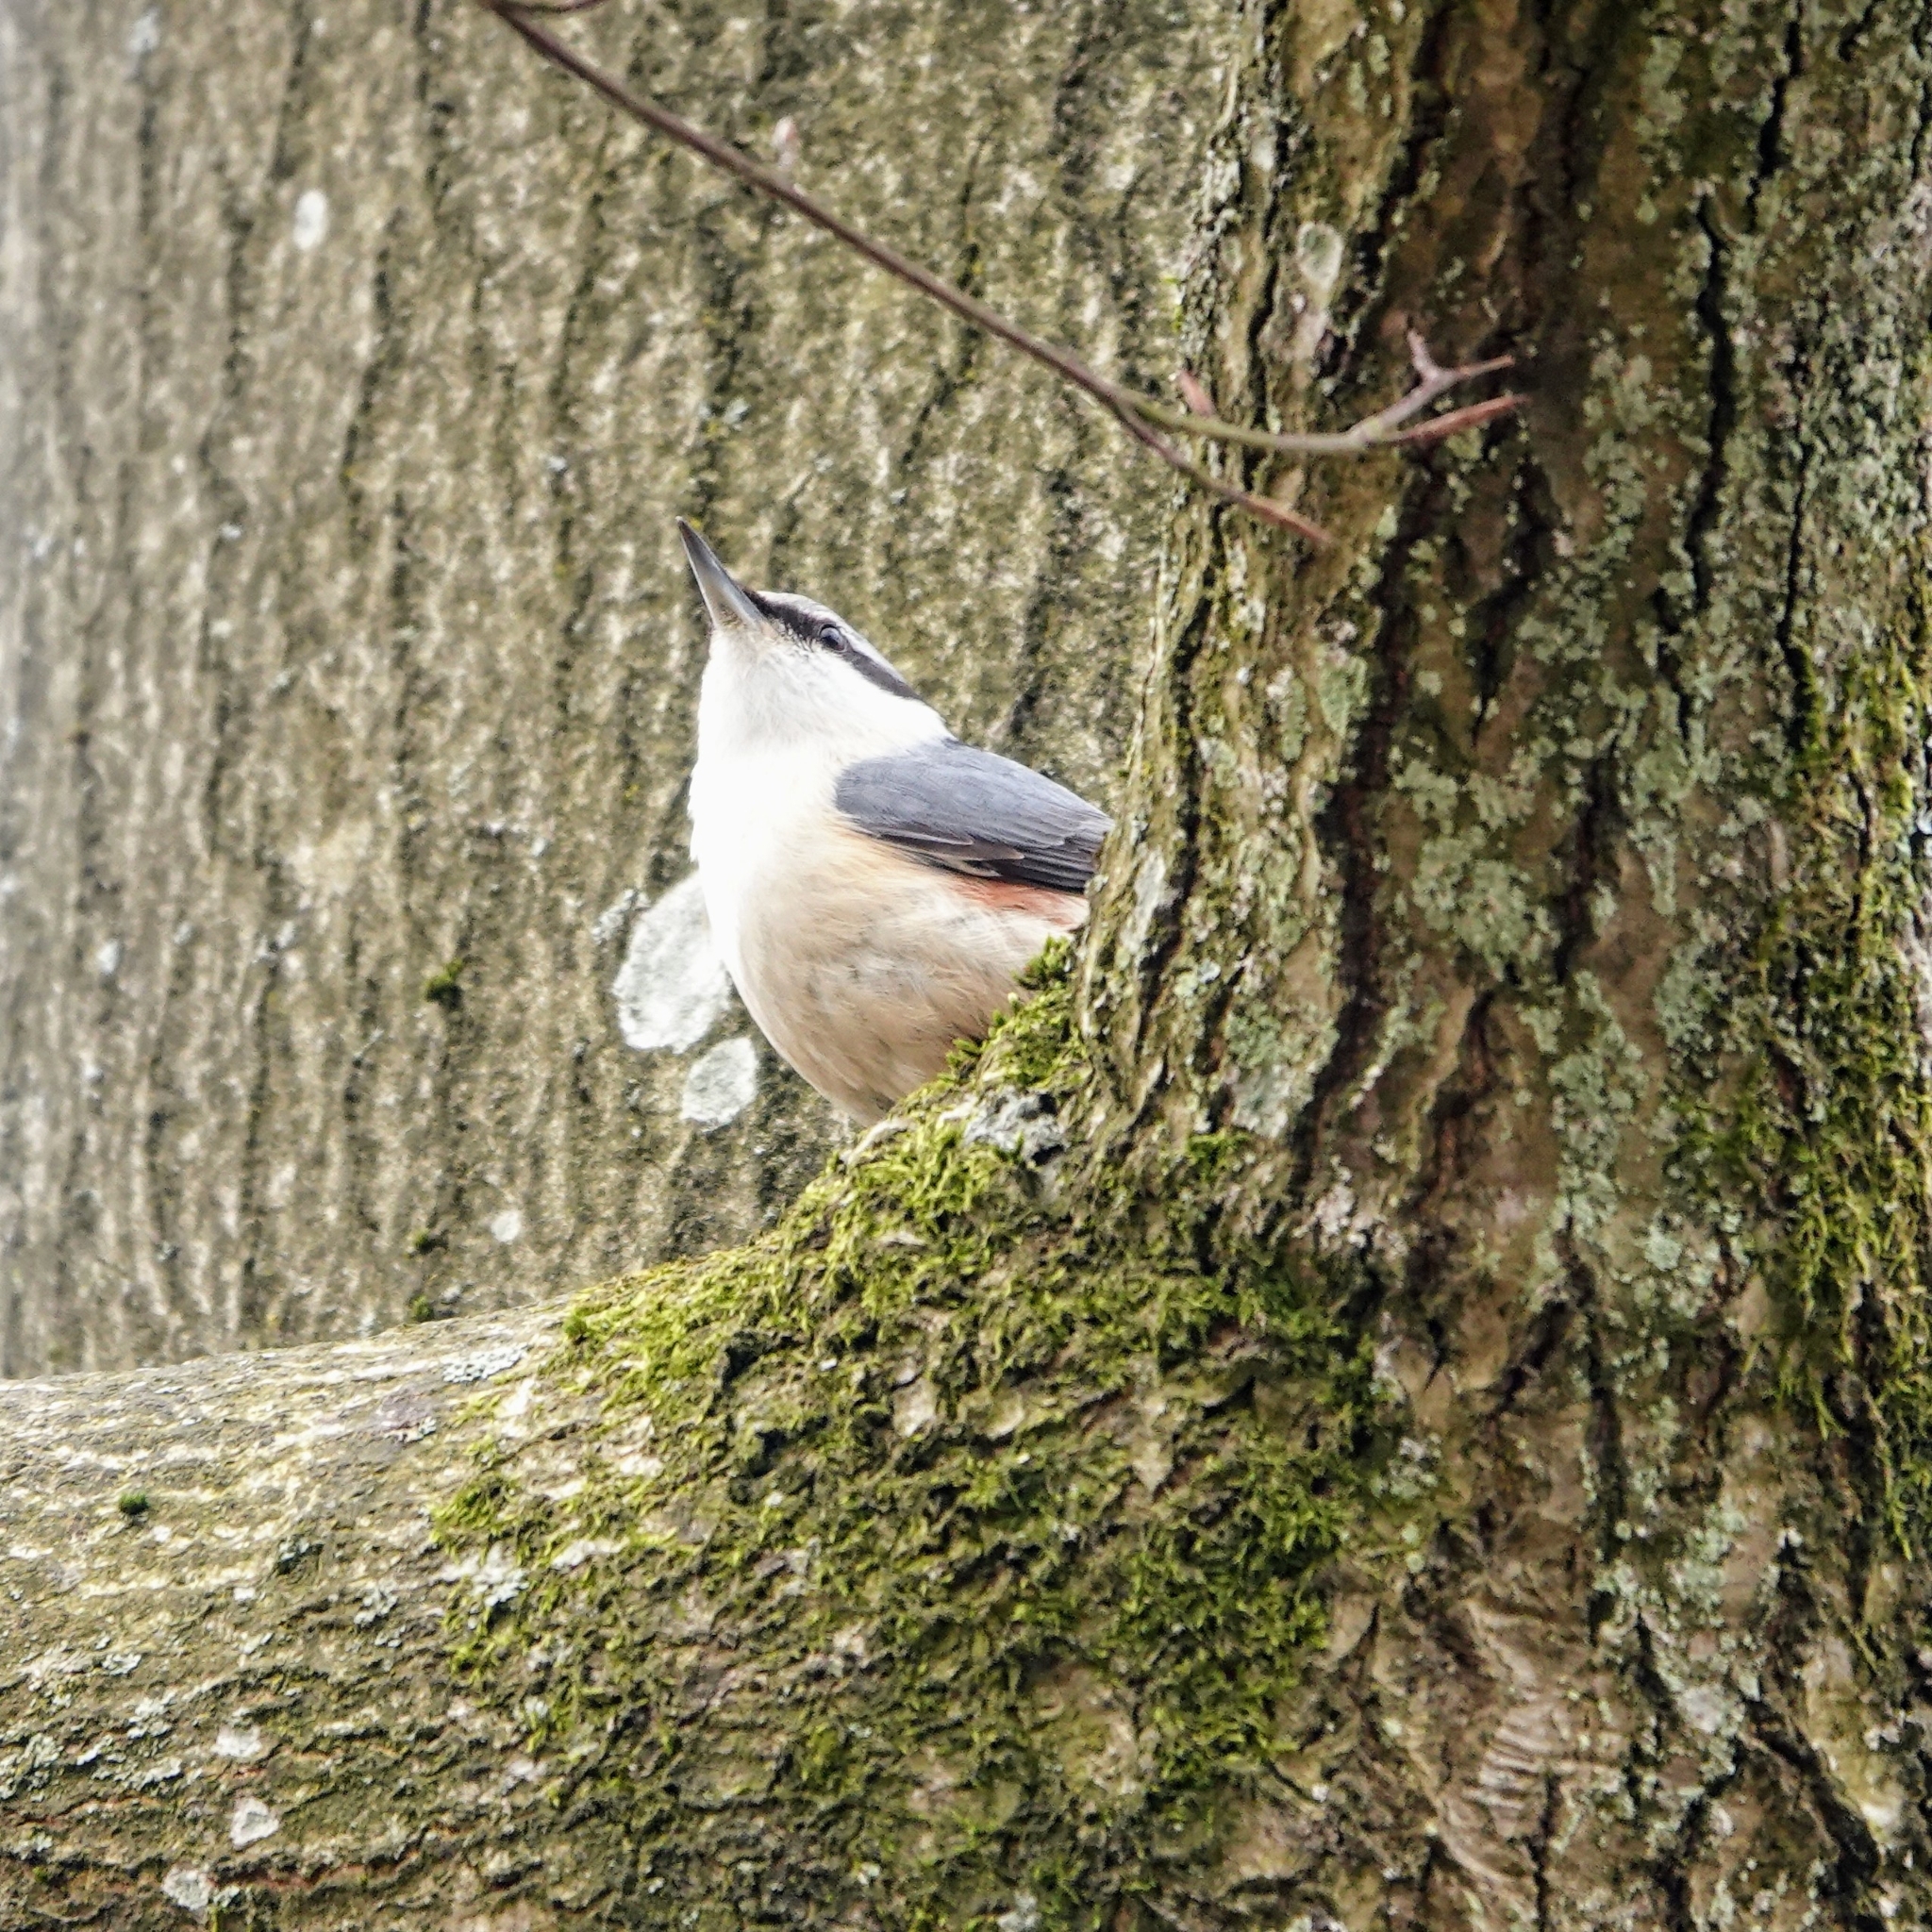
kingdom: Animalia
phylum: Chordata
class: Aves
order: Passeriformes
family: Sittidae
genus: Sitta
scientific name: Sitta europaea
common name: Eurasian nuthatch
